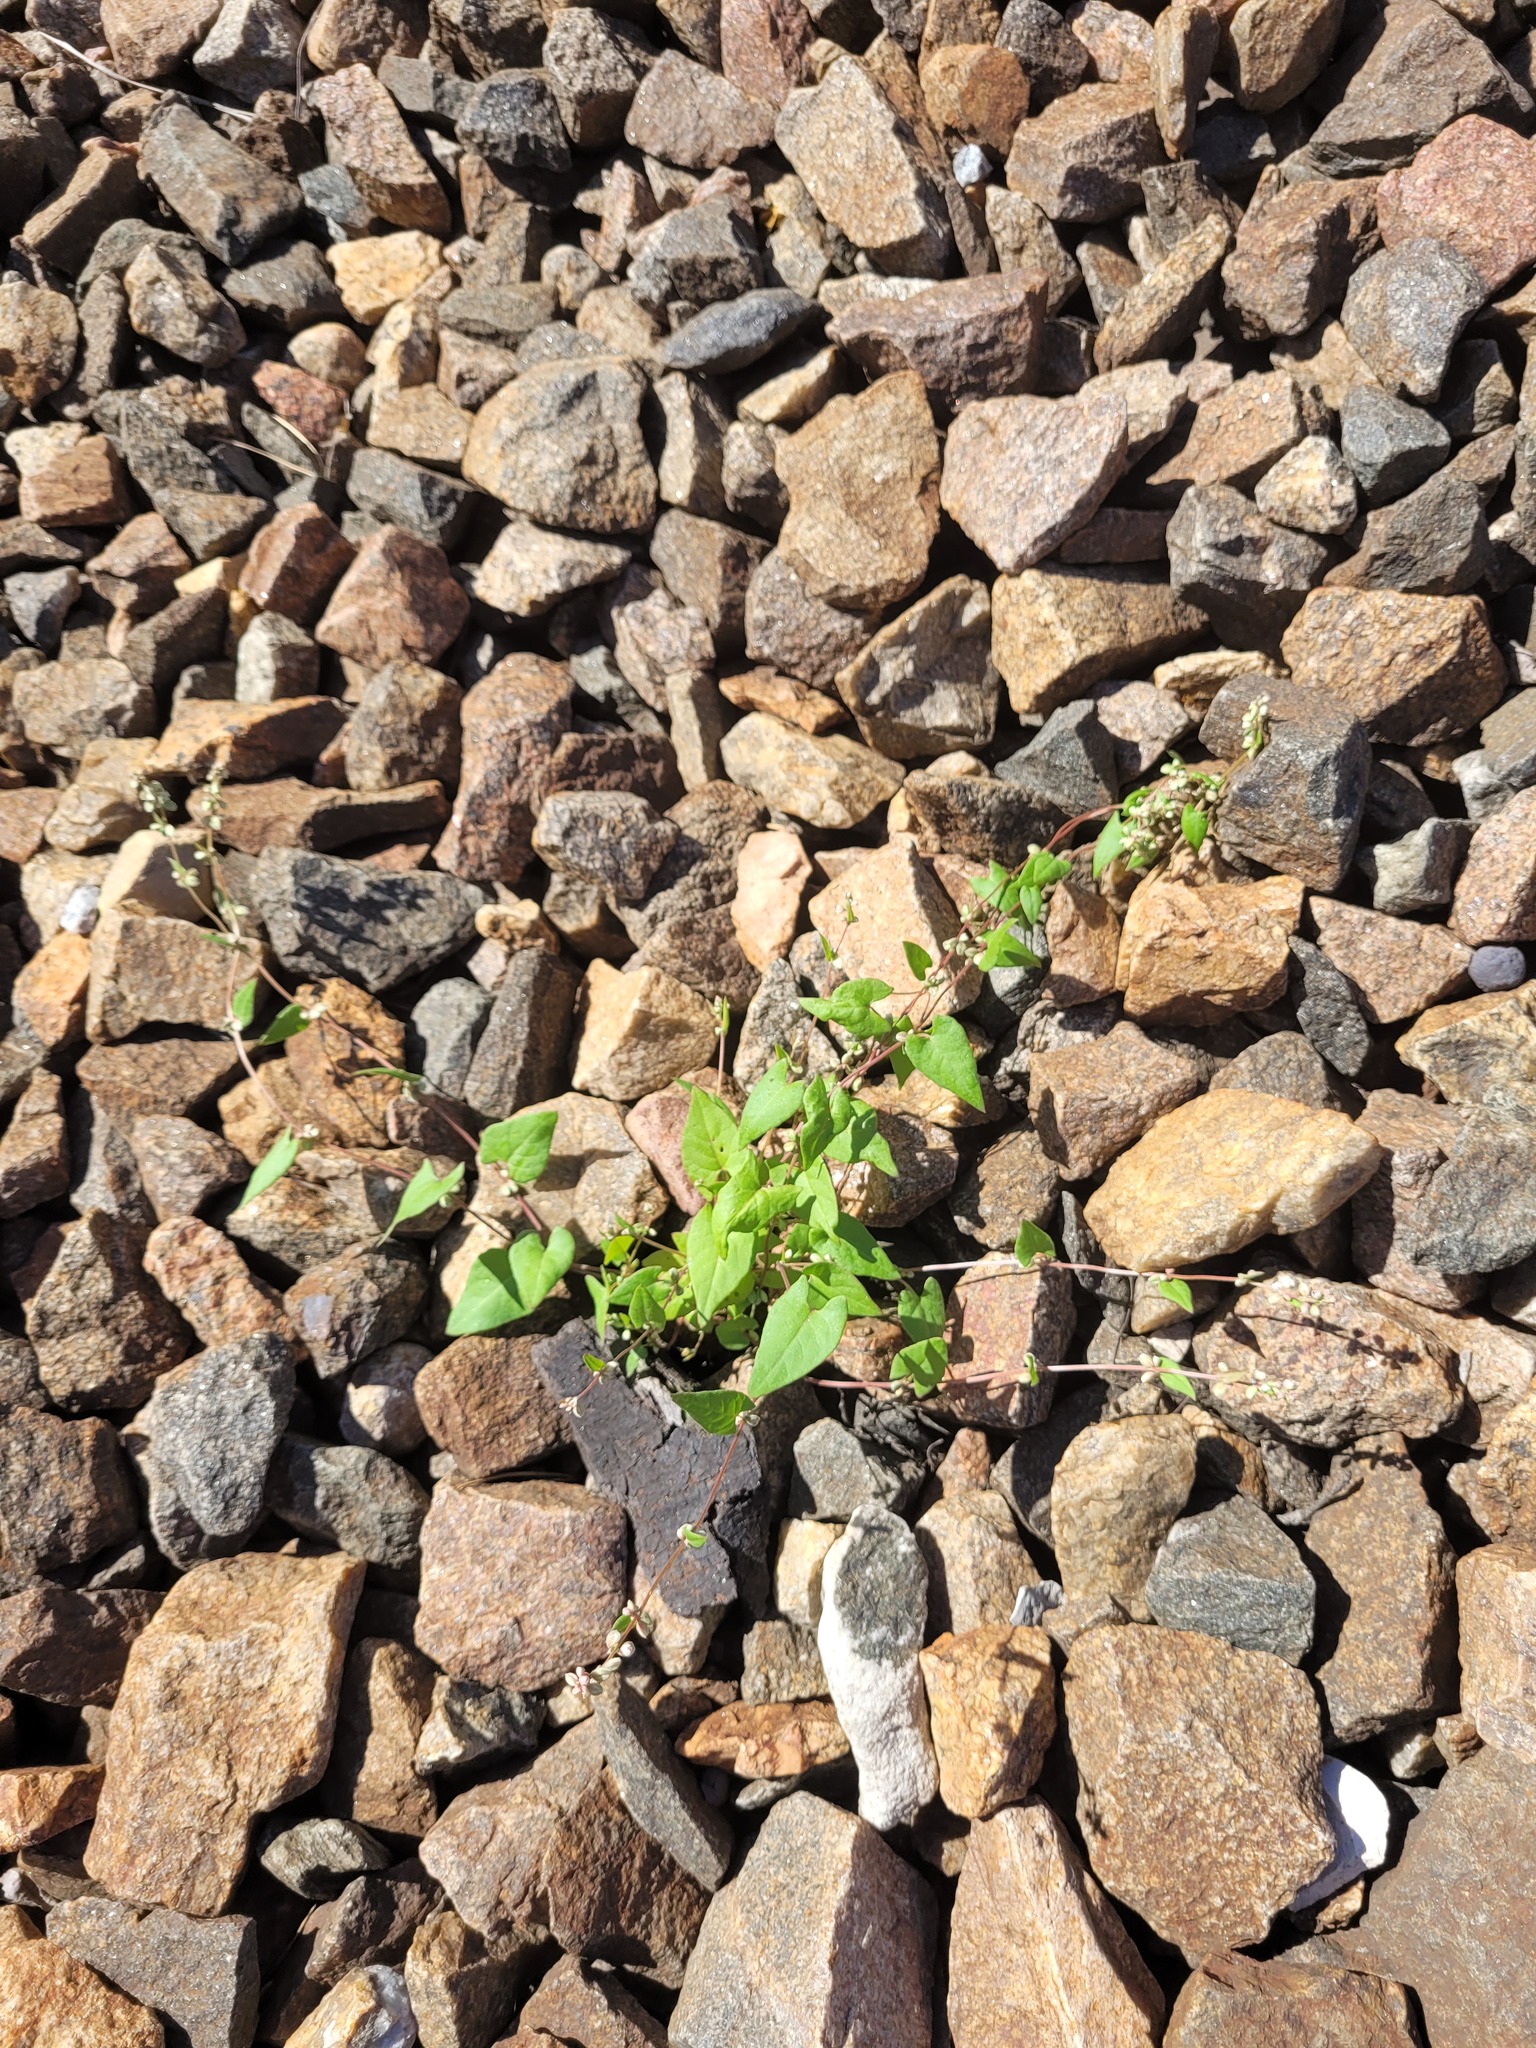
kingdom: Plantae
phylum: Tracheophyta
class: Magnoliopsida
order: Caryophyllales
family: Polygonaceae
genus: Fallopia
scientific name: Fallopia convolvulus
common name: Black bindweed
